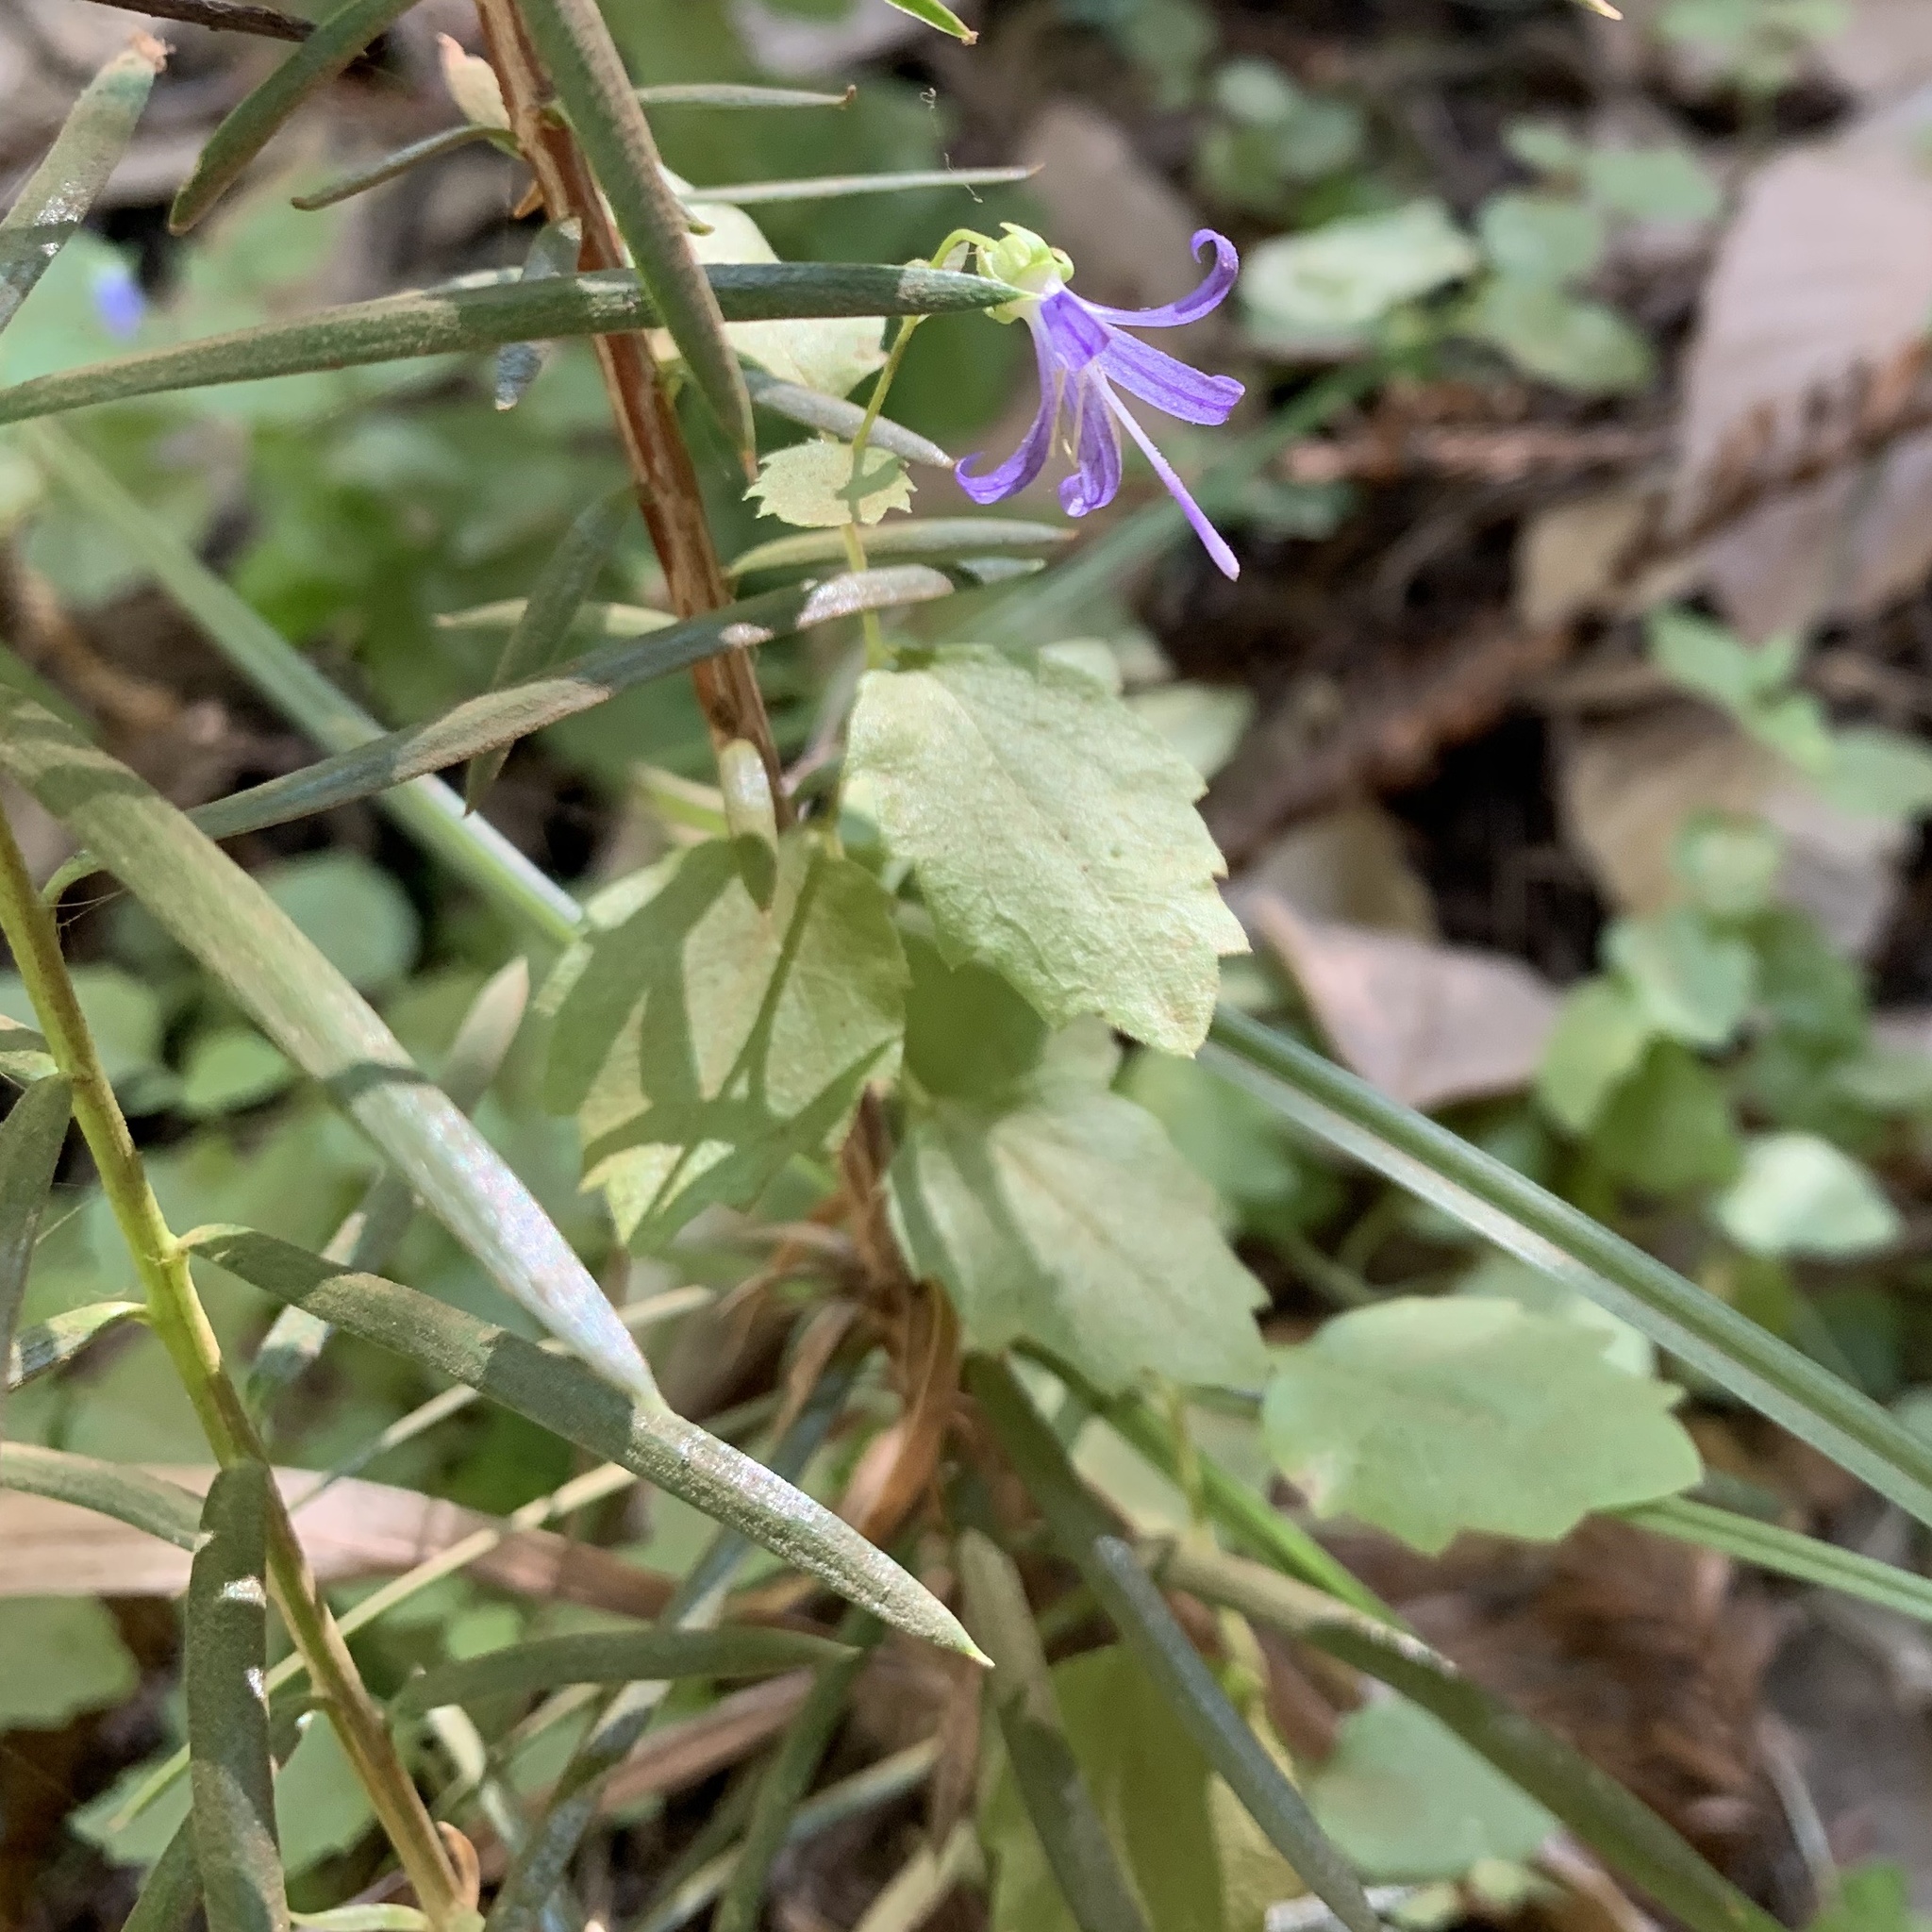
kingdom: Plantae
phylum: Tracheophyta
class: Magnoliopsida
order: Asterales
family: Campanulaceae
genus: Smithiastrum
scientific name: Smithiastrum prenanthoides
